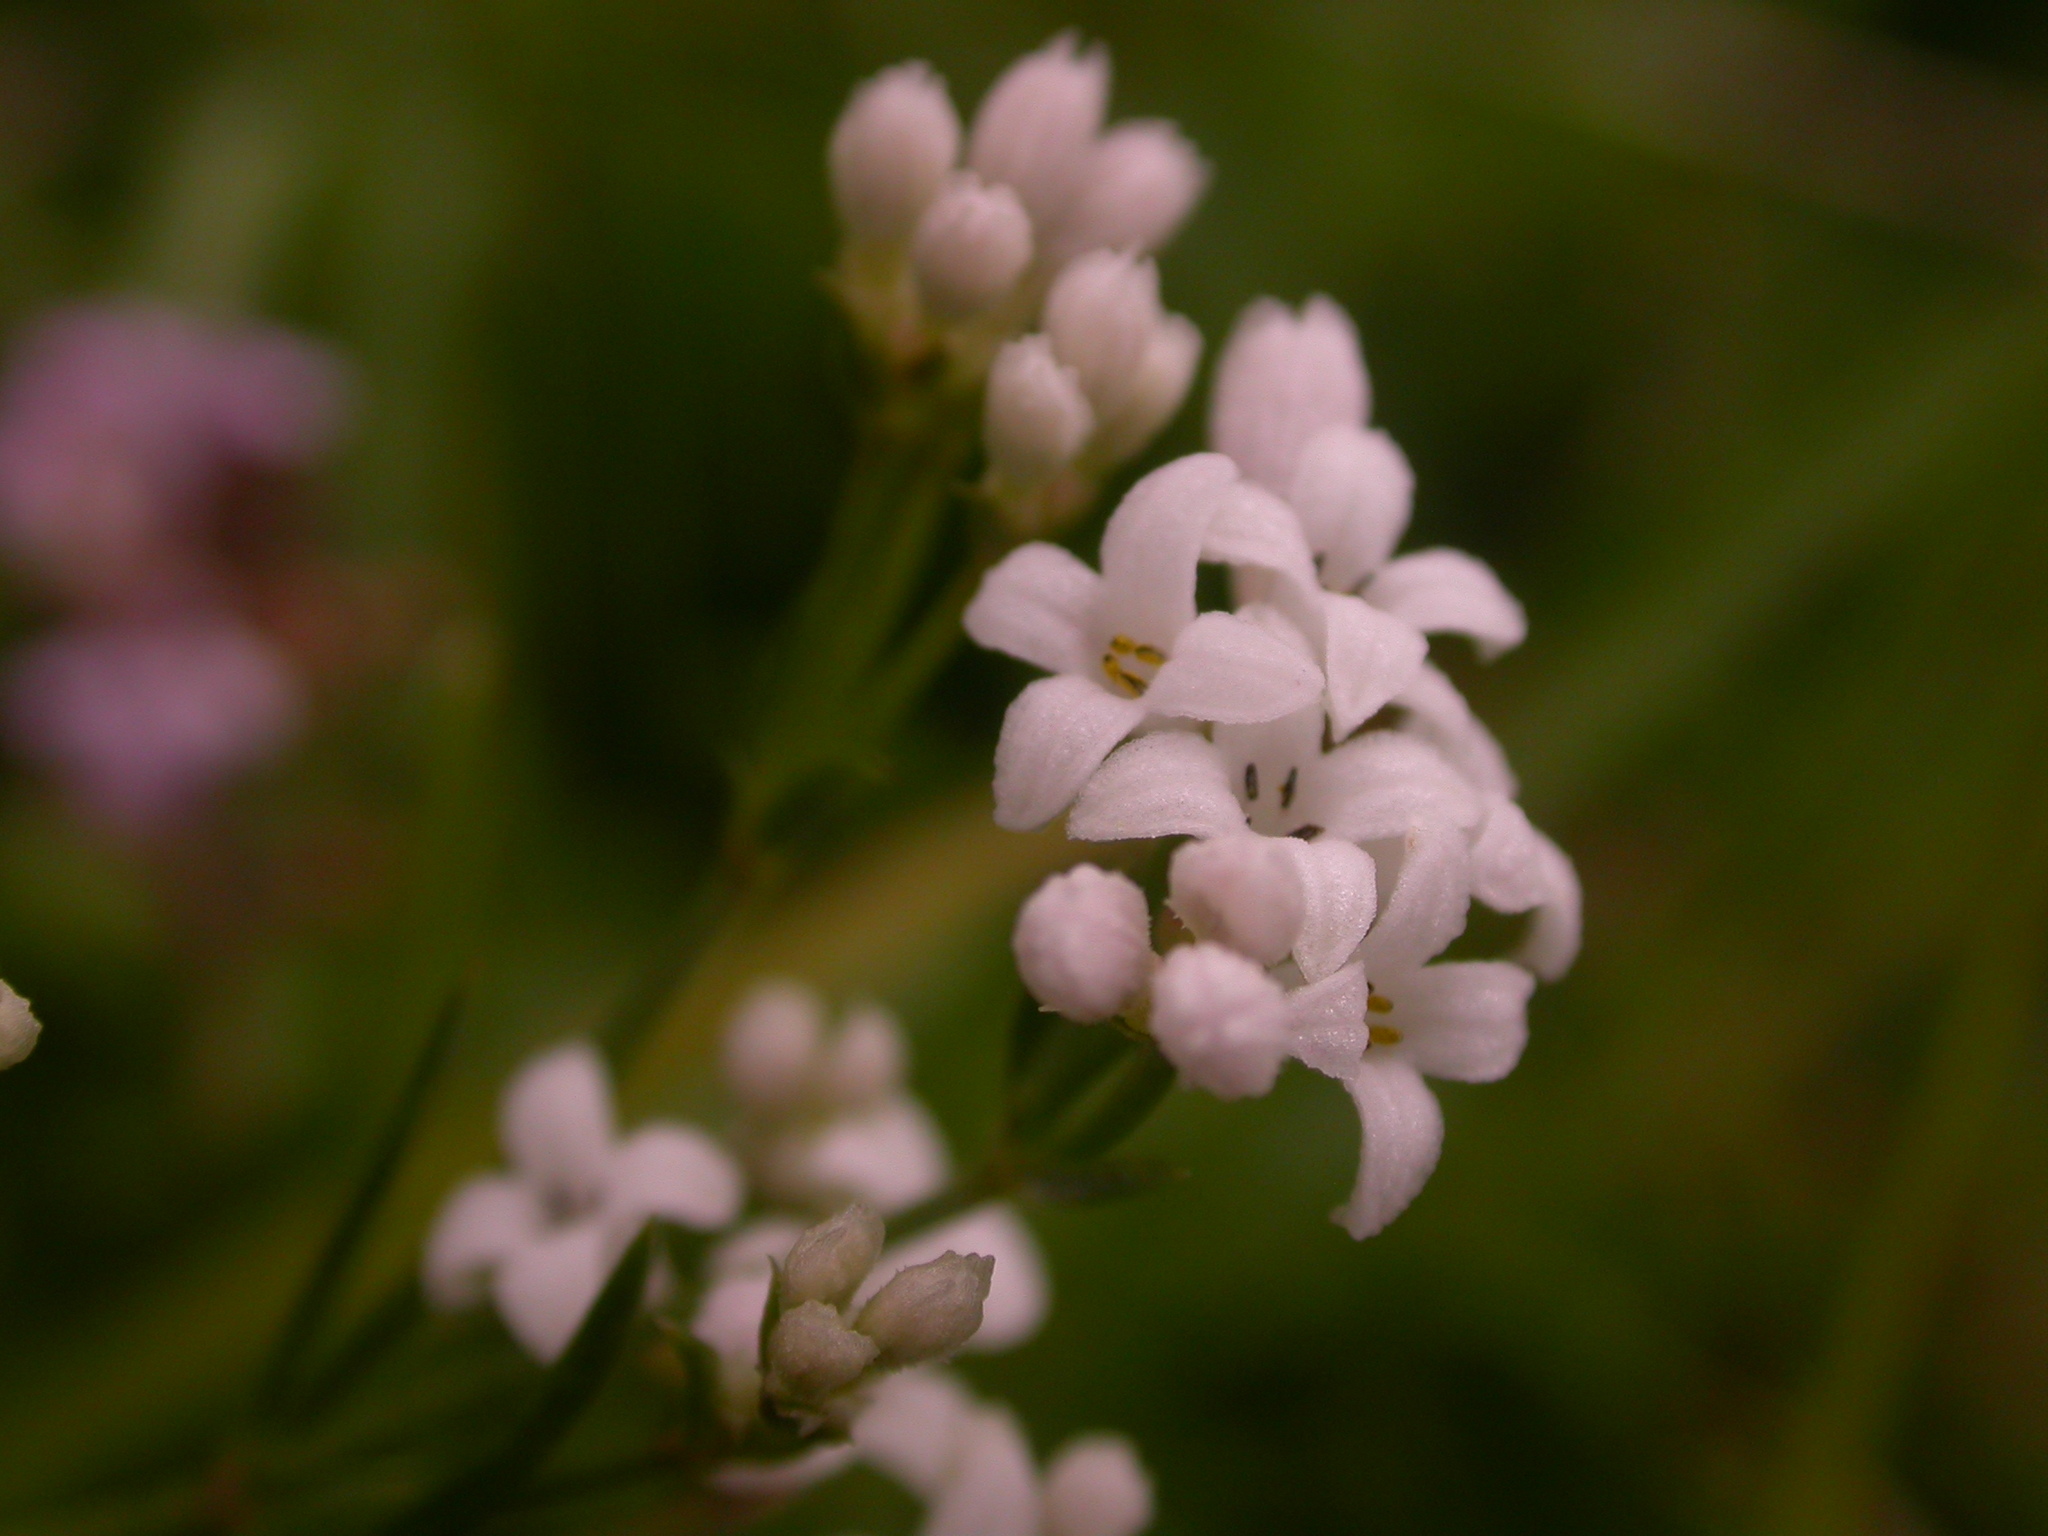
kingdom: Plantae
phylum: Tracheophyta
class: Magnoliopsida
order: Gentianales
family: Rubiaceae
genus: Cynanchica
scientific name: Cynanchica pyrenaica
